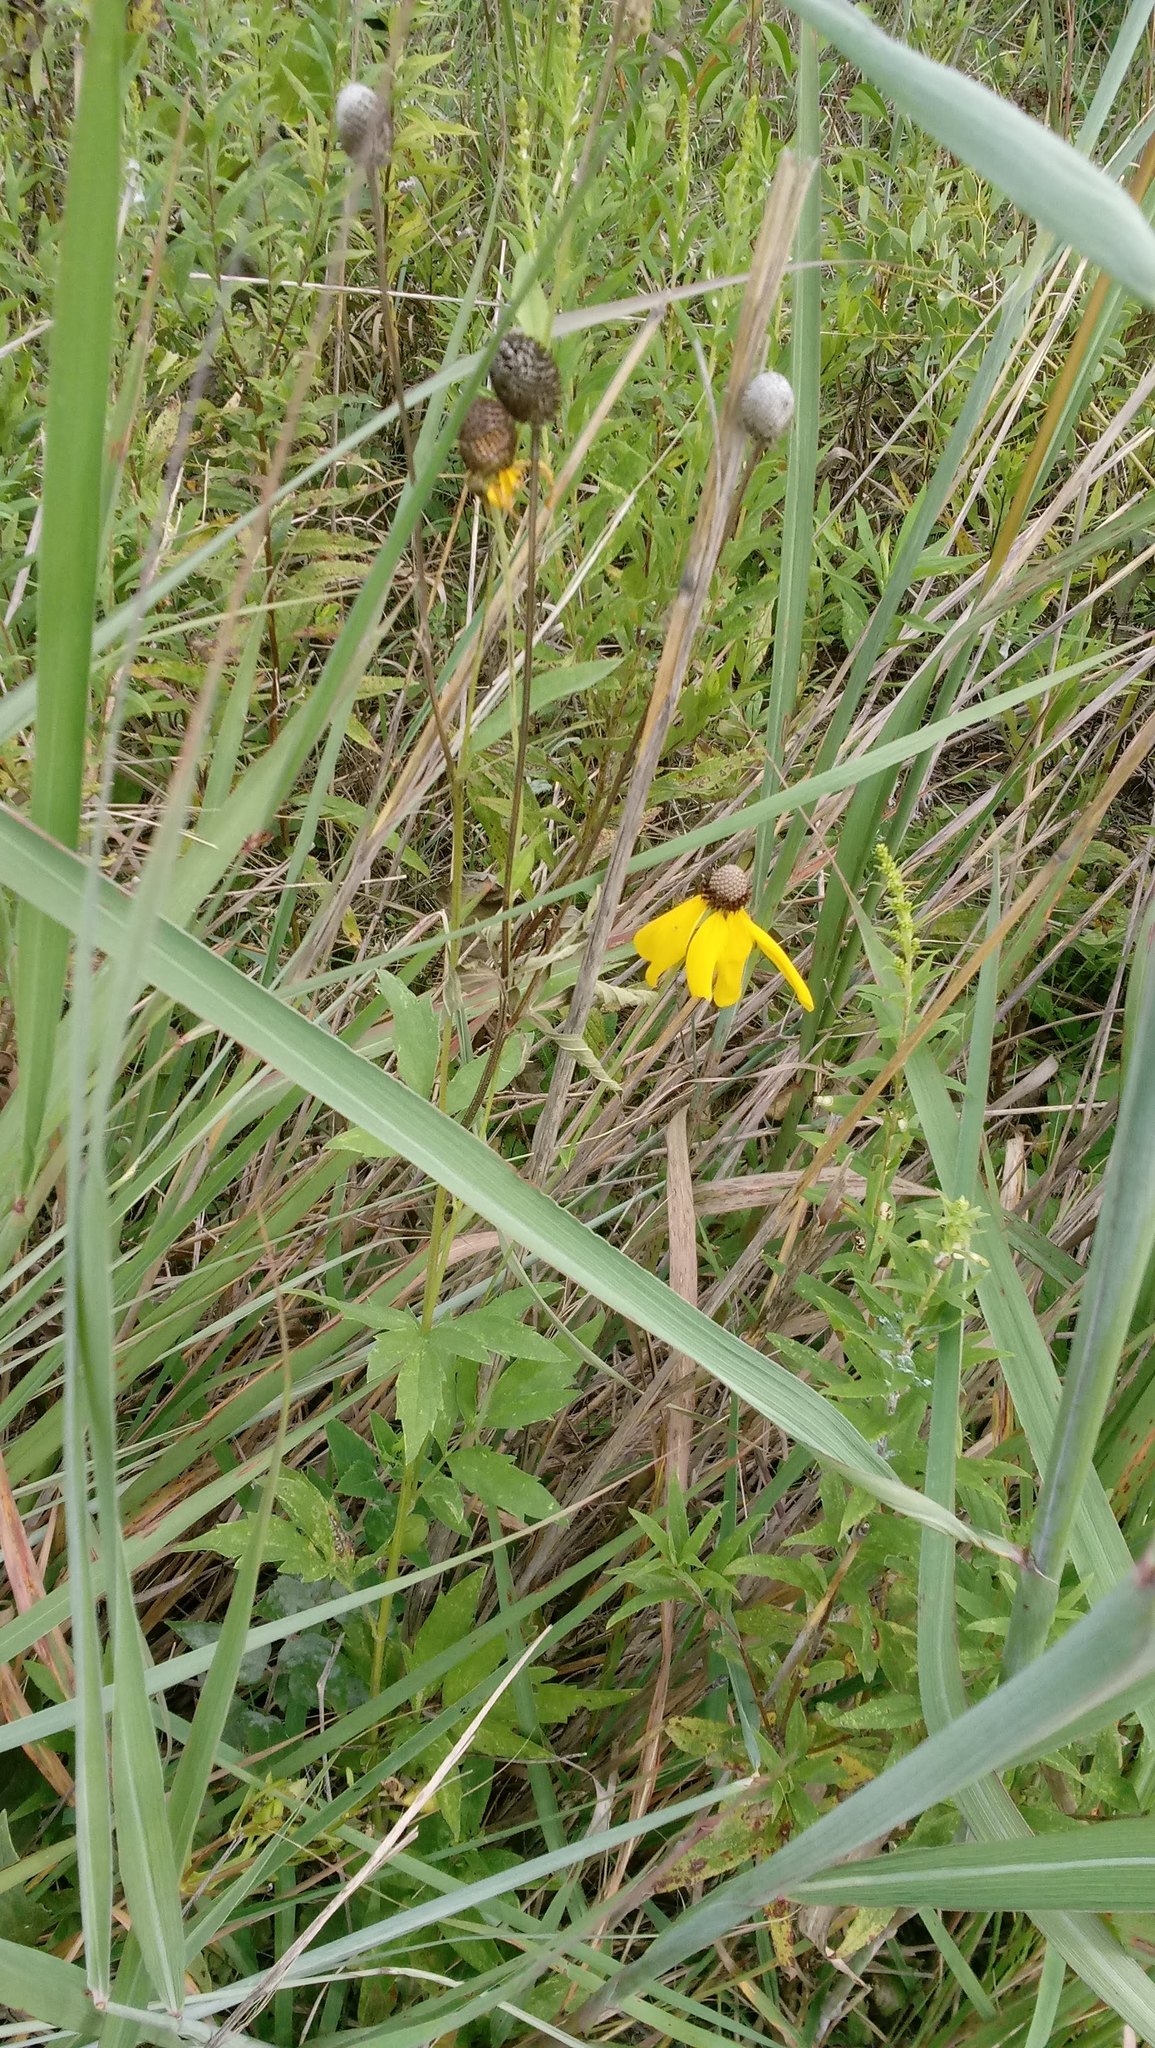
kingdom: Plantae
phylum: Tracheophyta
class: Magnoliopsida
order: Asterales
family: Asteraceae
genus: Ratibida
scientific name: Ratibida pinnata
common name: Drooping prairie-coneflower
